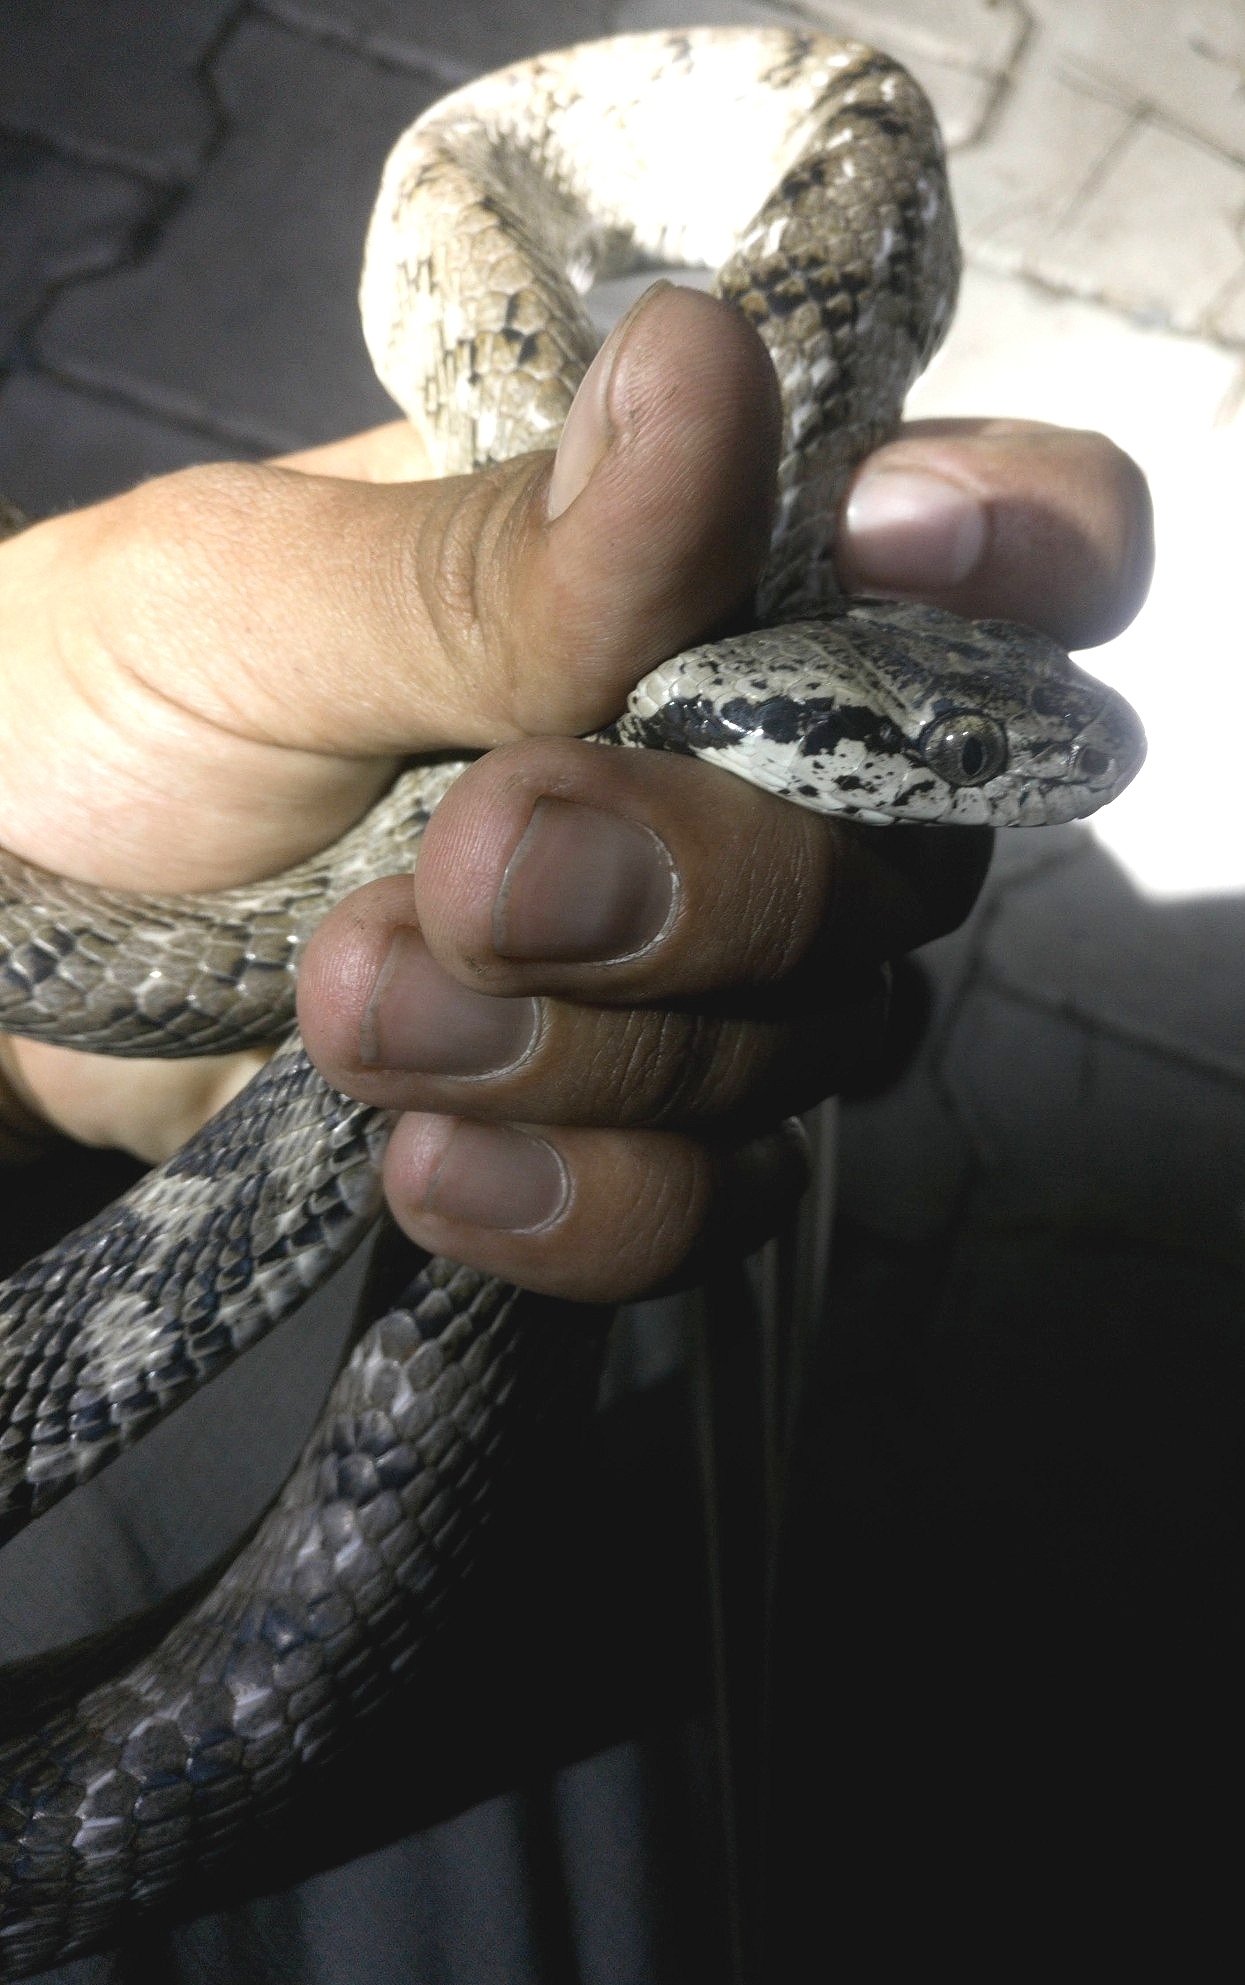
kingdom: Animalia
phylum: Chordata
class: Squamata
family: Colubridae
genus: Boiga
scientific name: Boiga forsteni
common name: Forsten's cat snake
